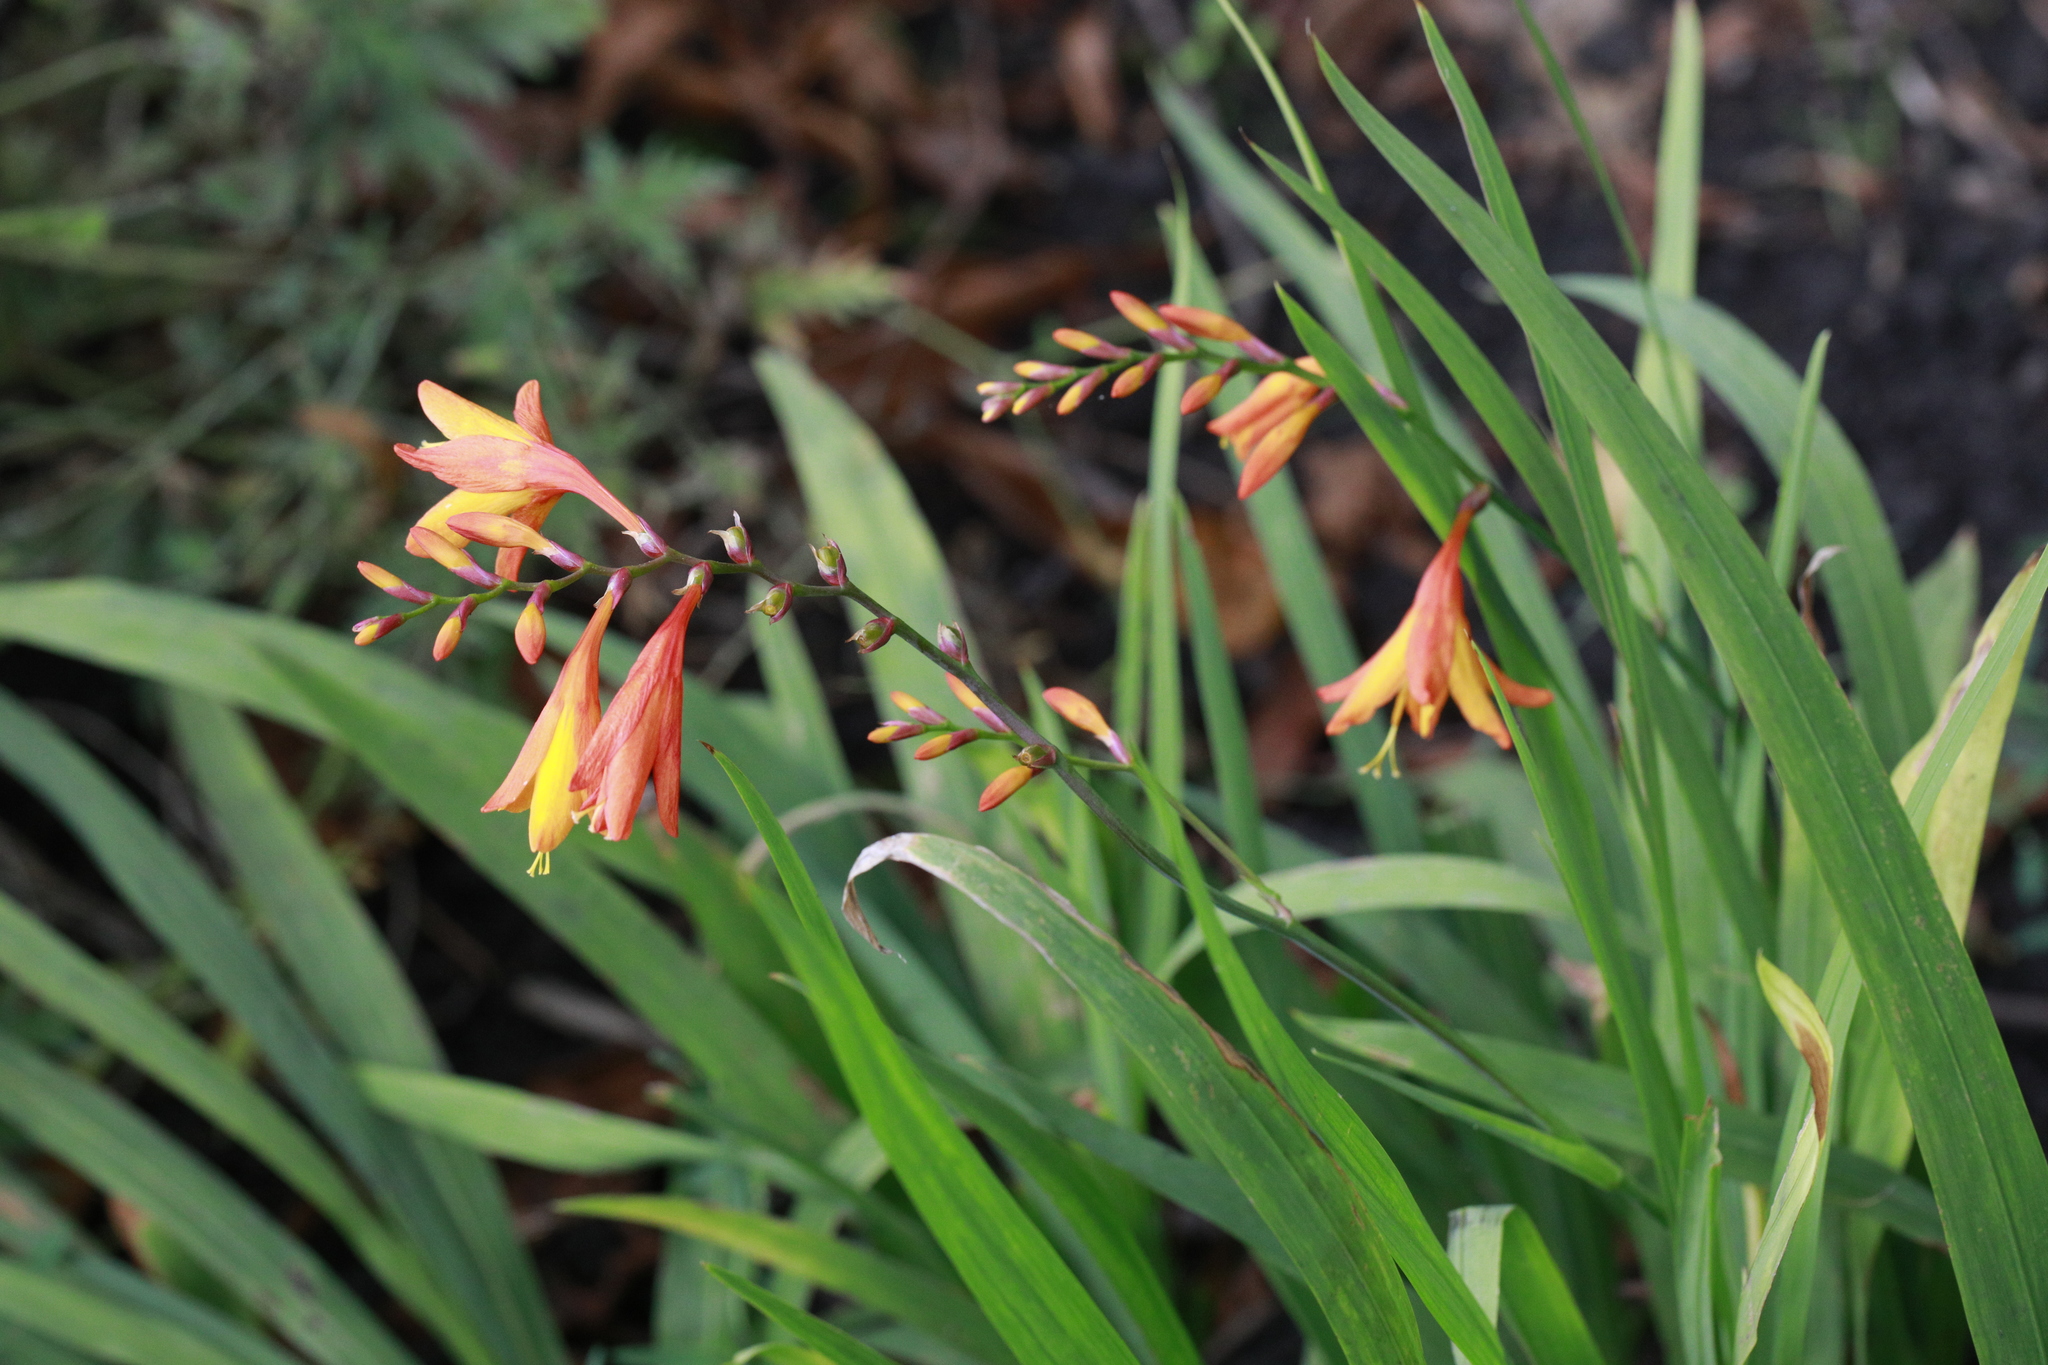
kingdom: Plantae
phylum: Tracheophyta
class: Liliopsida
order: Asparagales
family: Iridaceae
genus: Crocosmia
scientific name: Crocosmia crocosmiiflora
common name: Montbretia
